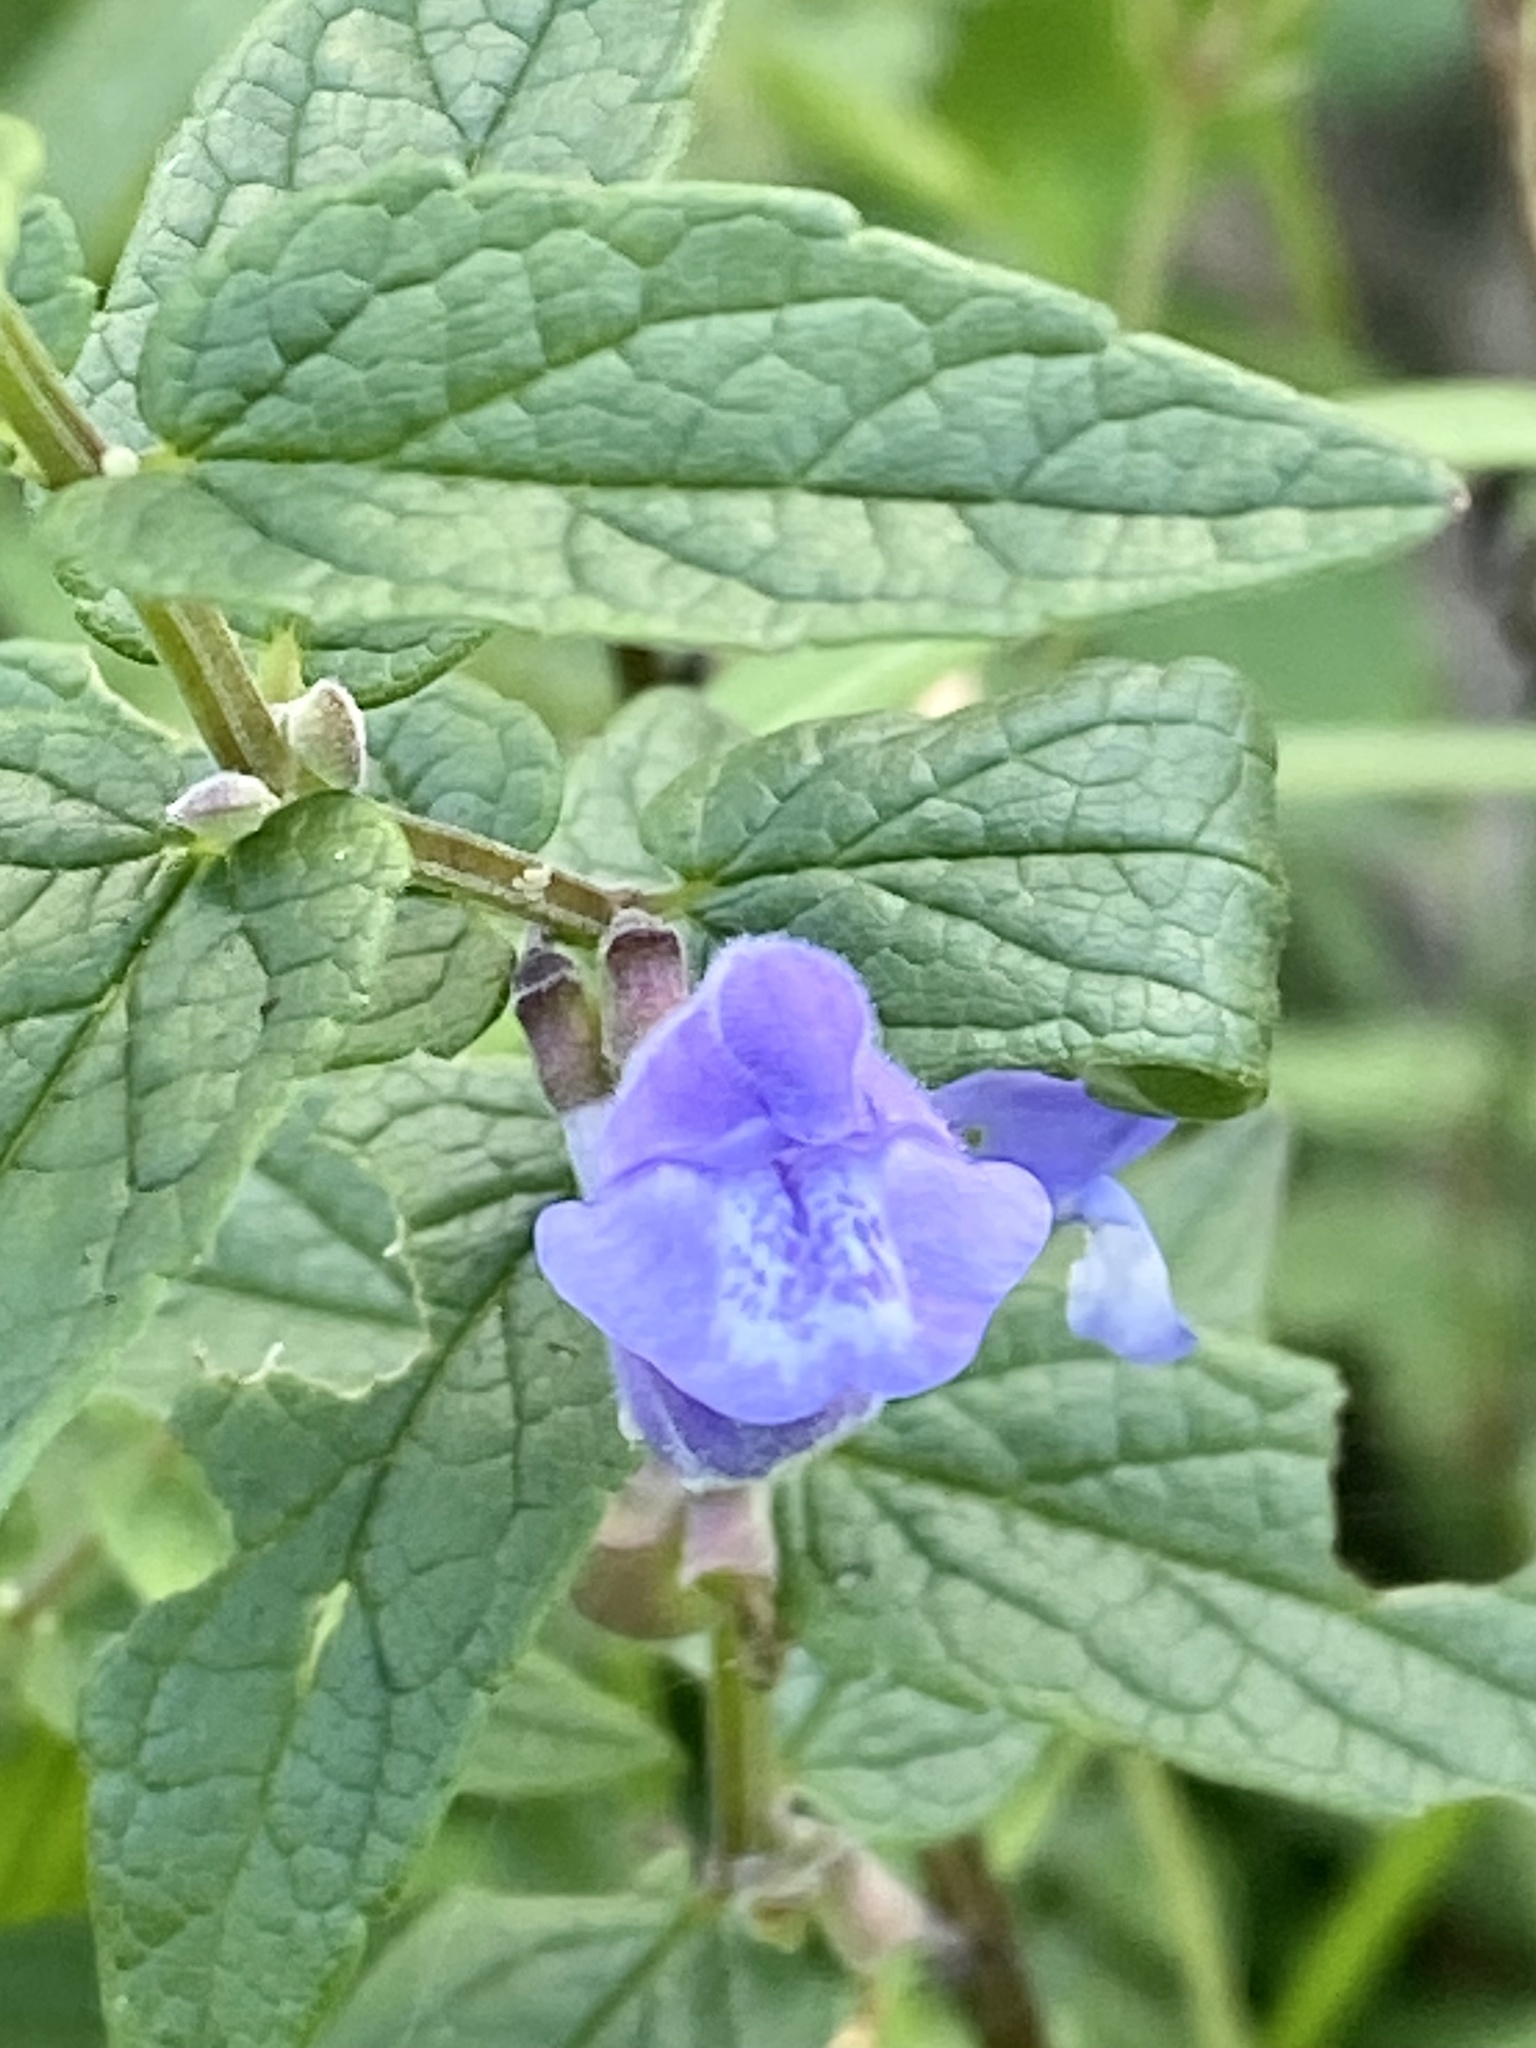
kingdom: Plantae
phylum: Tracheophyta
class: Magnoliopsida
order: Lamiales
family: Lamiaceae
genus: Scutellaria
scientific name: Scutellaria galericulata
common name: Skullcap
